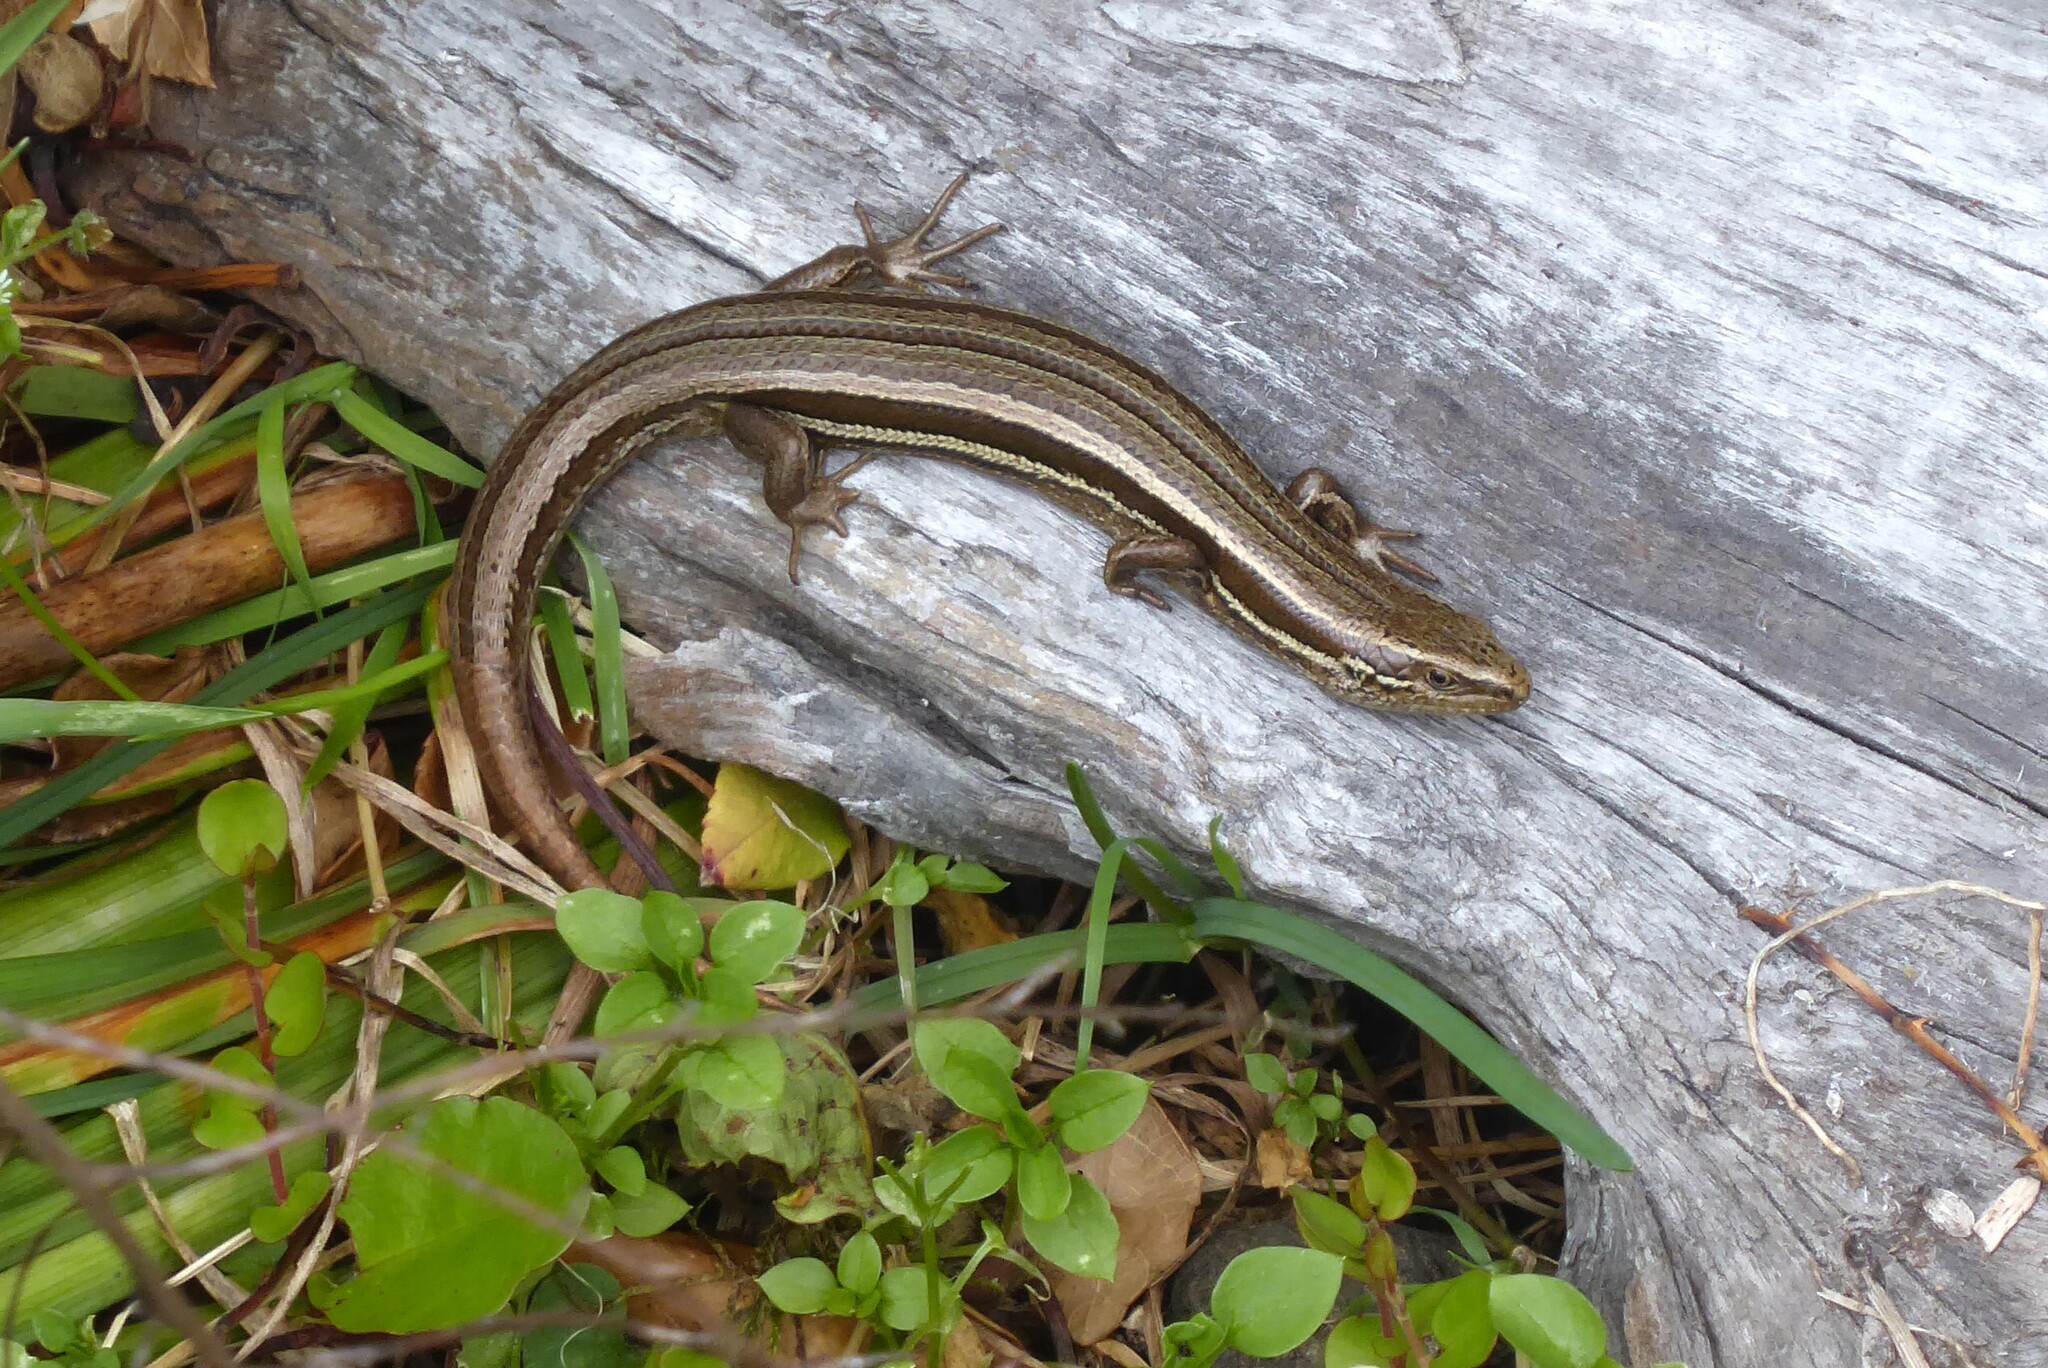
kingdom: Animalia
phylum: Chordata
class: Squamata
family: Scincidae
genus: Oligosoma
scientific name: Oligosoma polychroma
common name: Common new zealand skink
